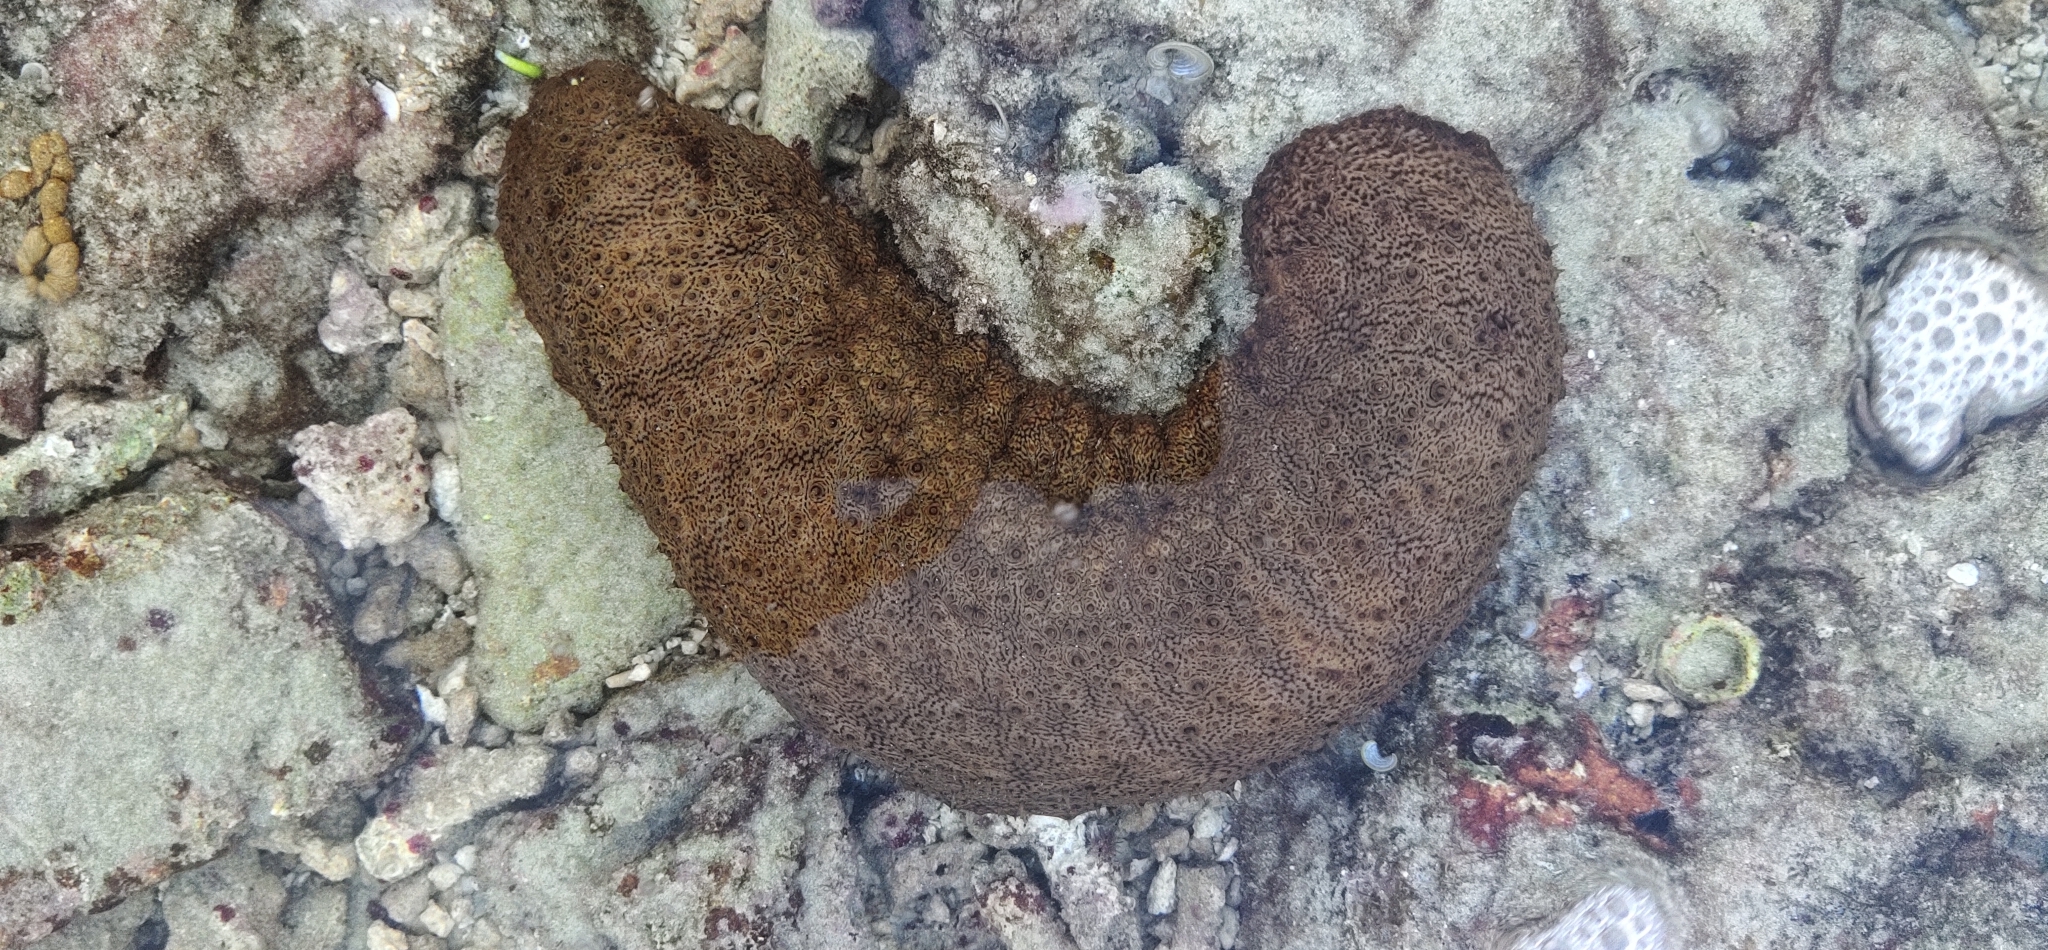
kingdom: Animalia
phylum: Echinodermata
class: Holothuroidea
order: Holothuriida
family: Holothuriidae
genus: Actinopyga
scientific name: Actinopyga mauritiana
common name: Surf redfish
